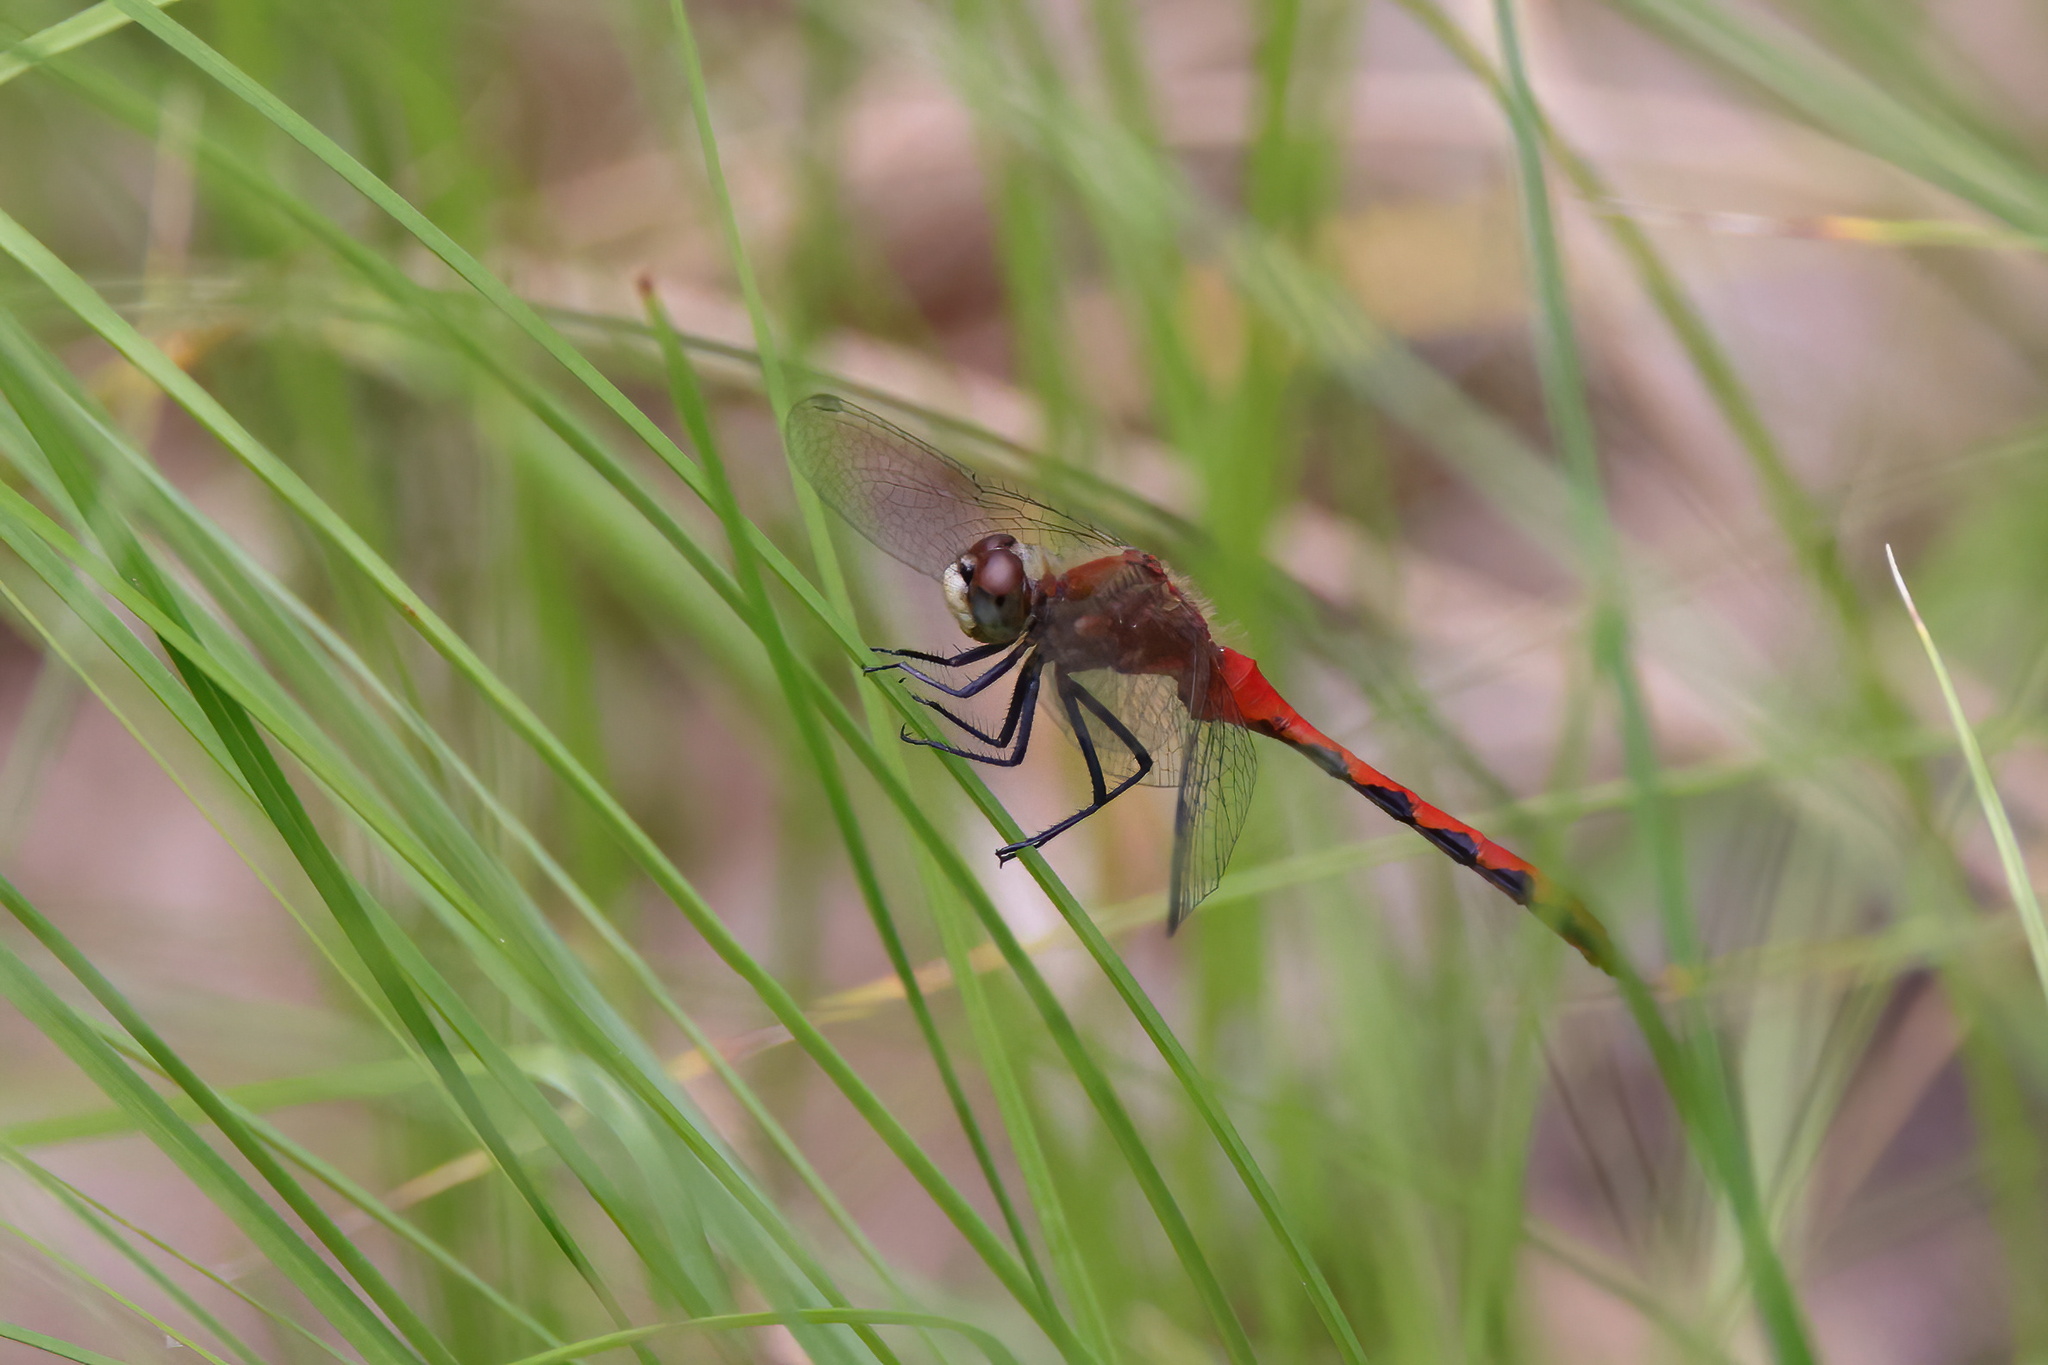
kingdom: Animalia
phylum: Arthropoda
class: Insecta
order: Odonata
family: Libellulidae
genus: Sympetrum
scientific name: Sympetrum obtrusum
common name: White-faced meadowhawk
